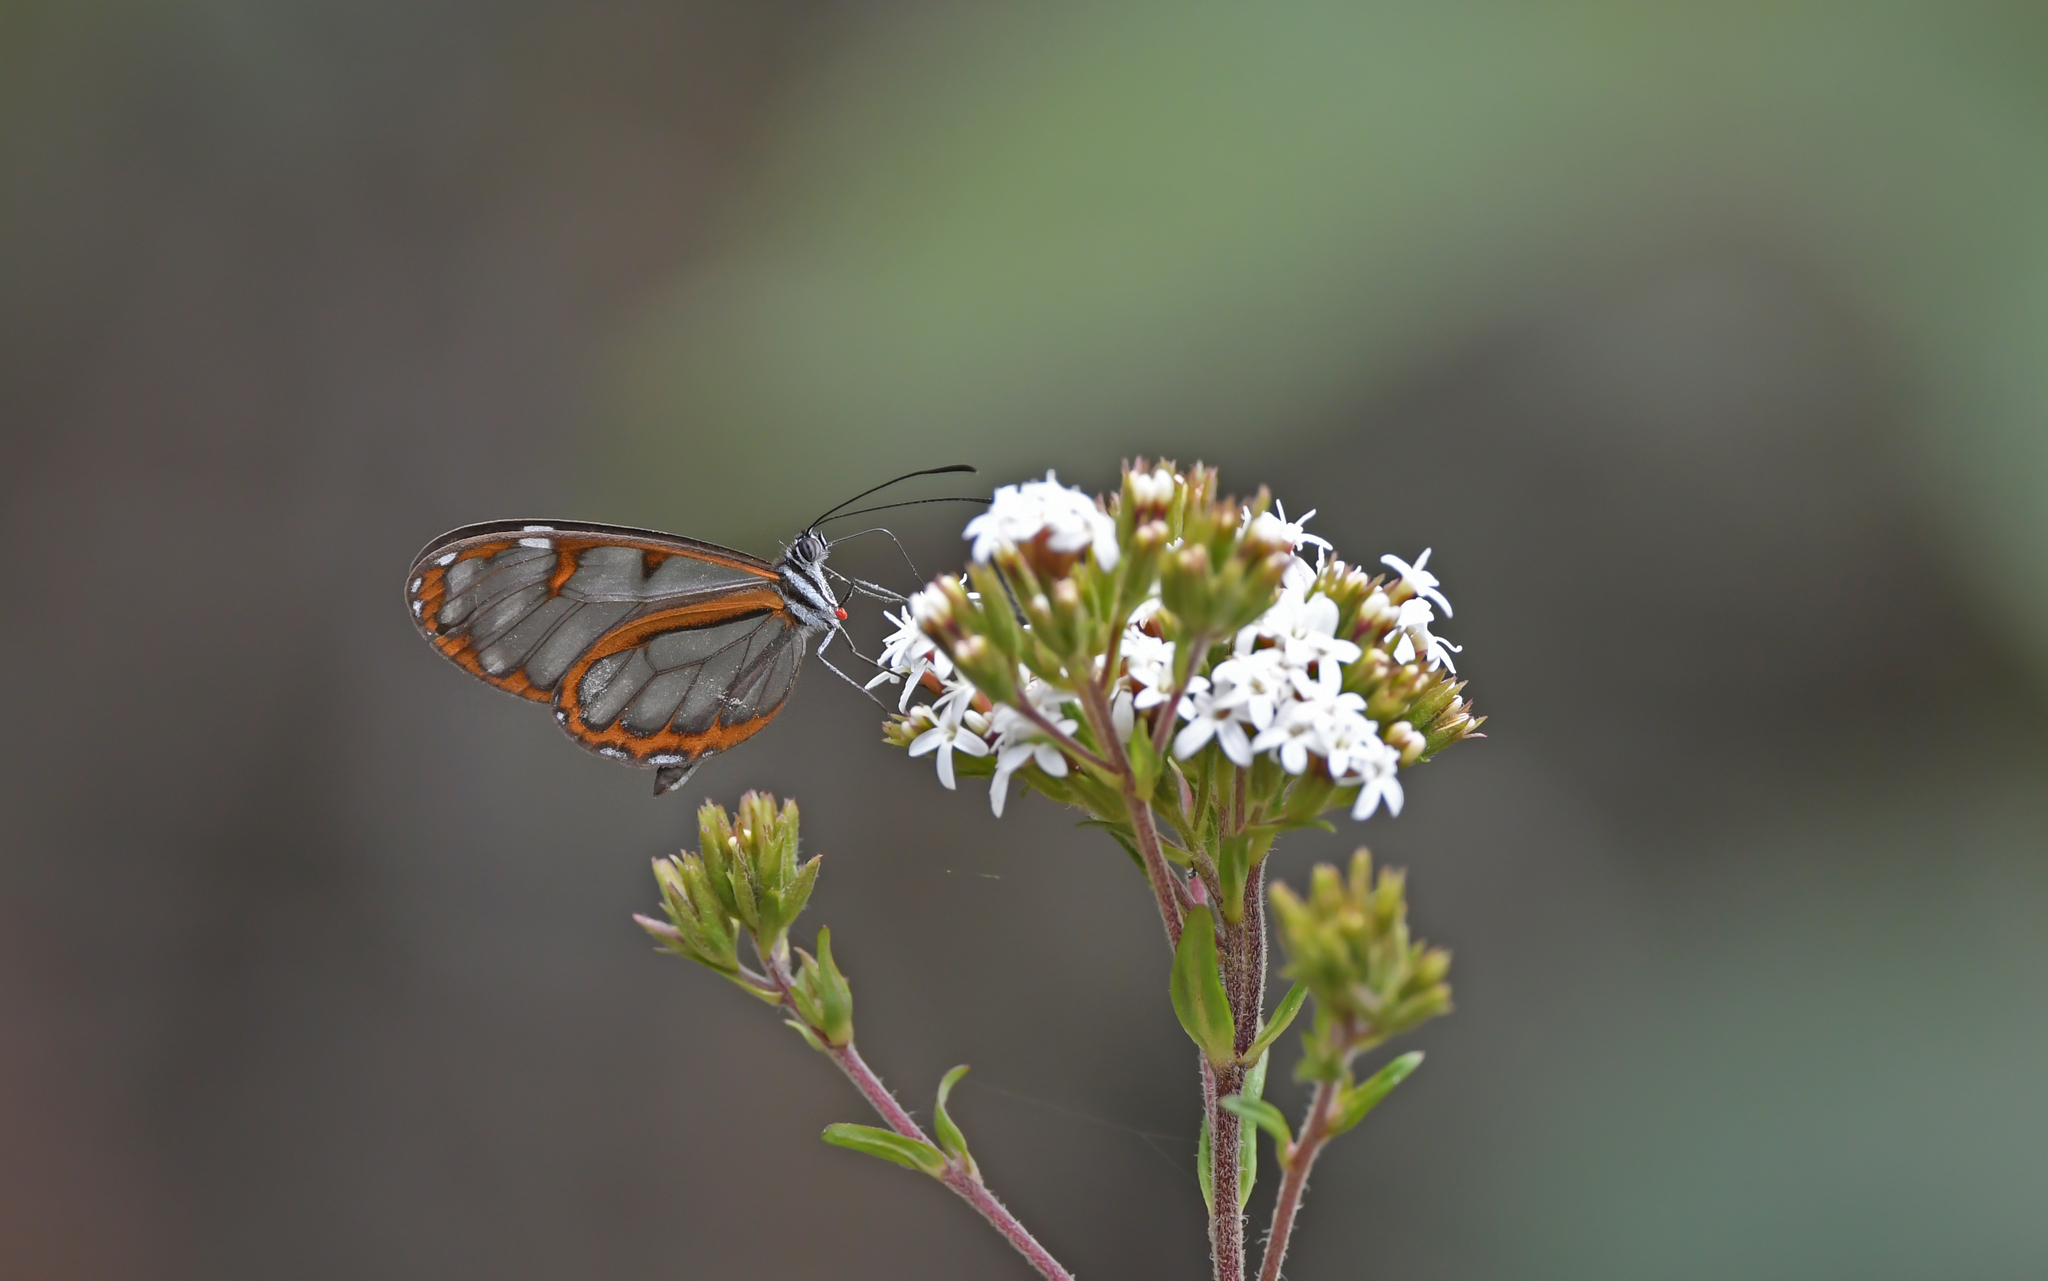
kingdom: Animalia
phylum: Arthropoda
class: Insecta
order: Lepidoptera
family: Nymphalidae
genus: Oleria
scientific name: Oleria padilla
